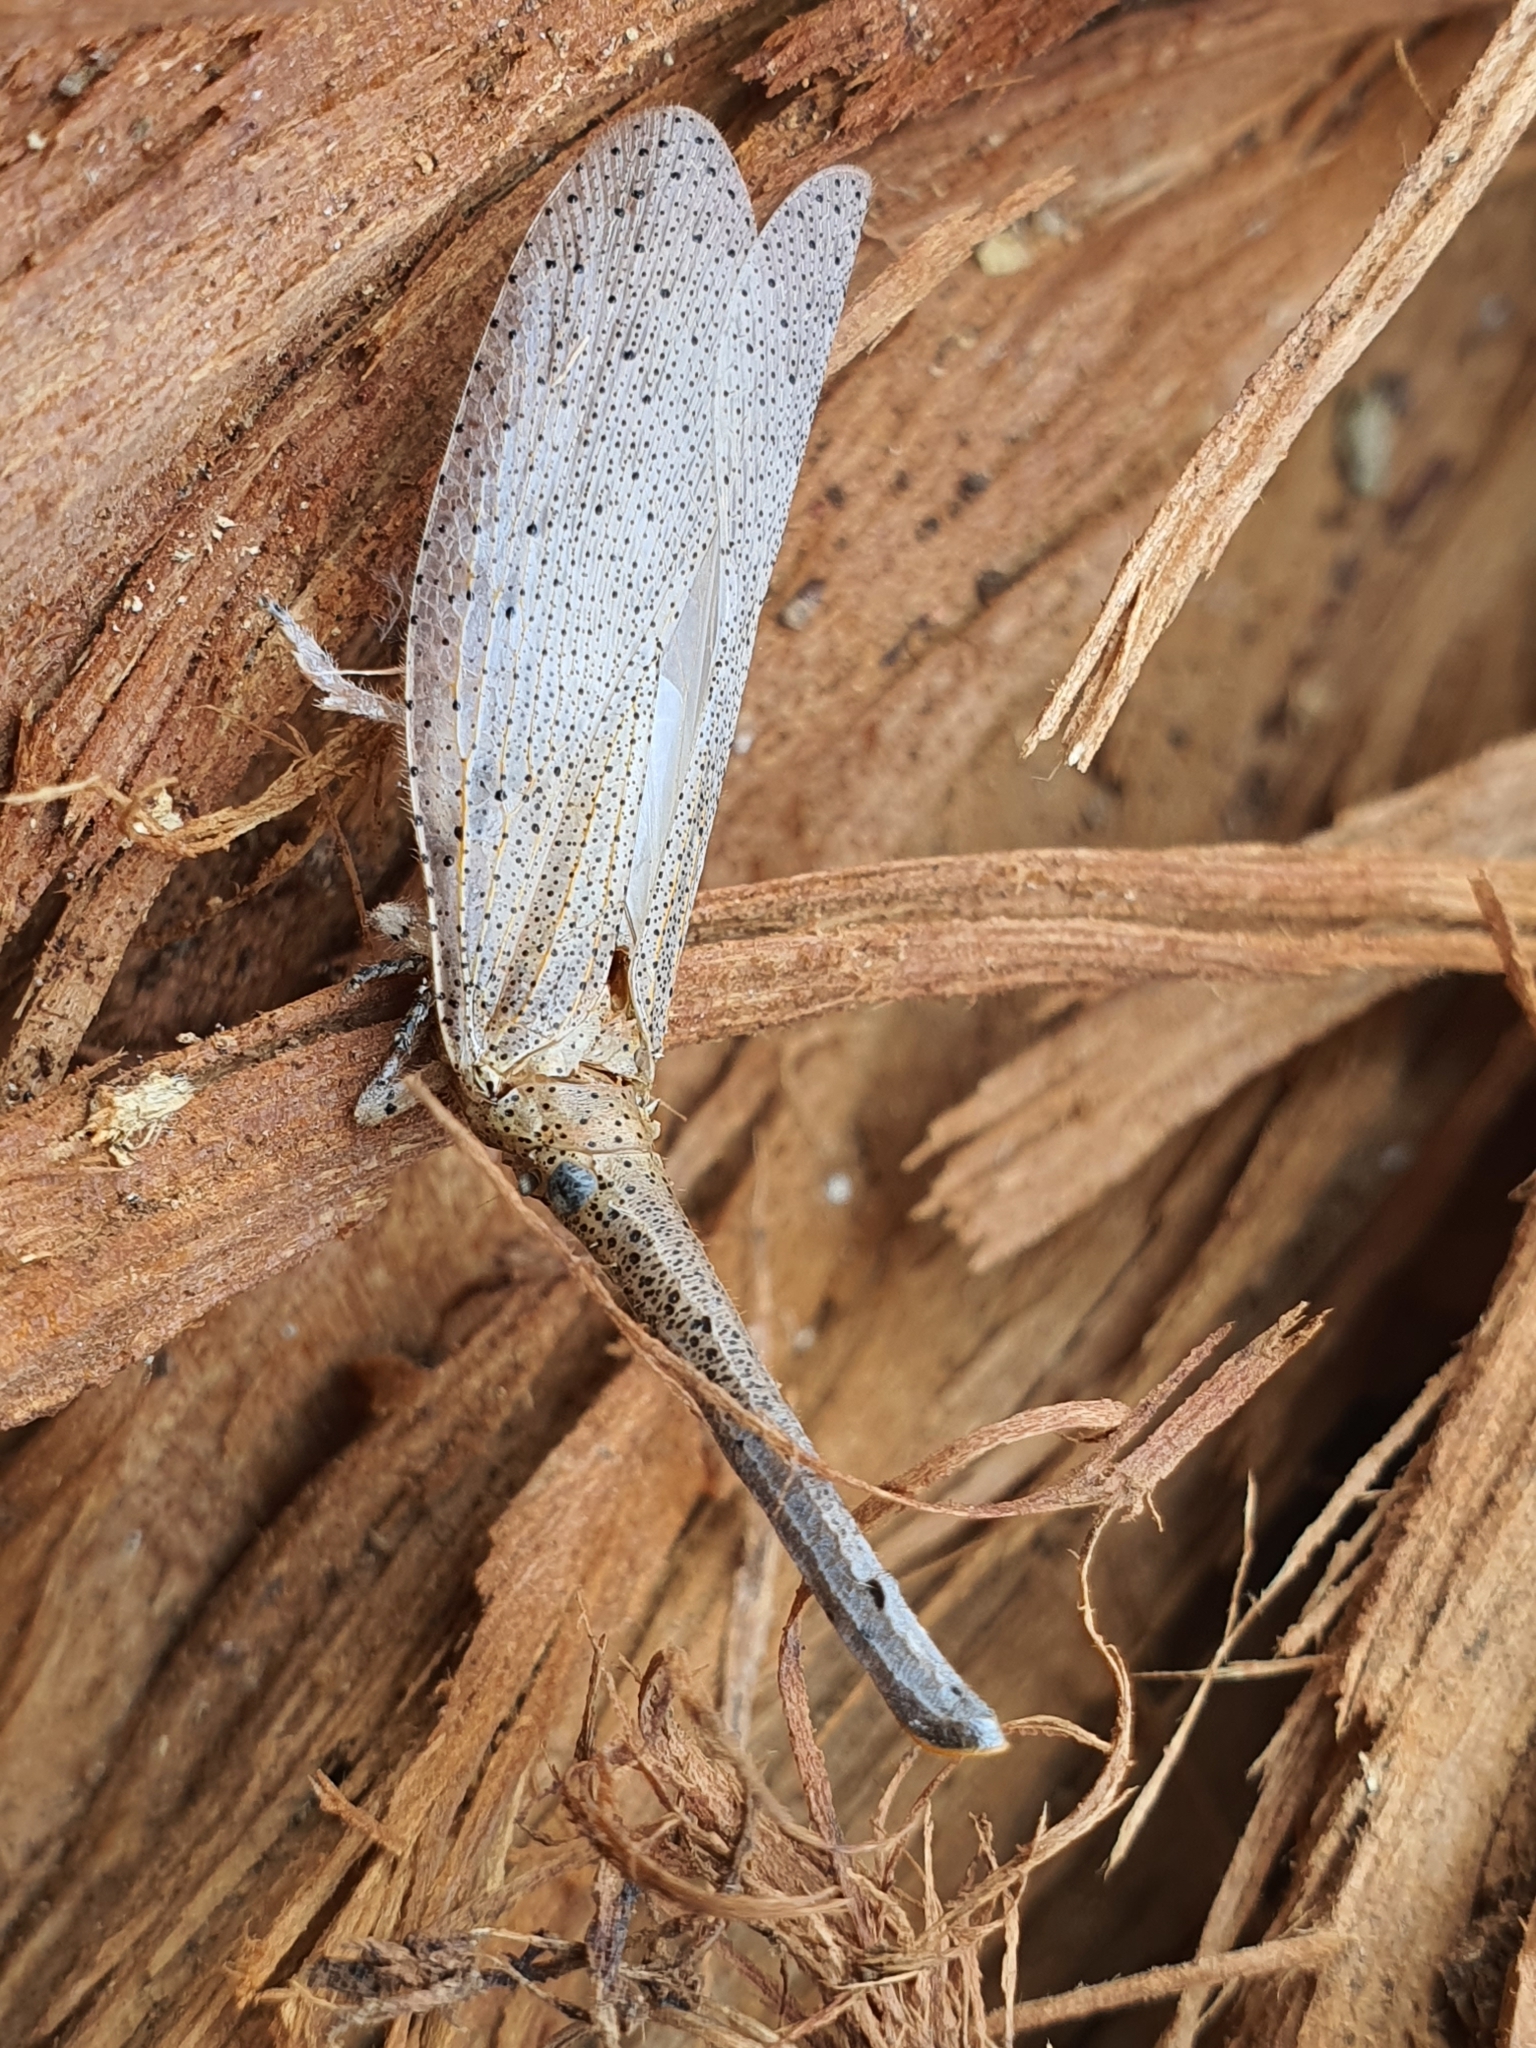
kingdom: Animalia
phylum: Arthropoda
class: Insecta
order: Hemiptera
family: Fulgoridae
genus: Zanna
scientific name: Zanna dohrni
